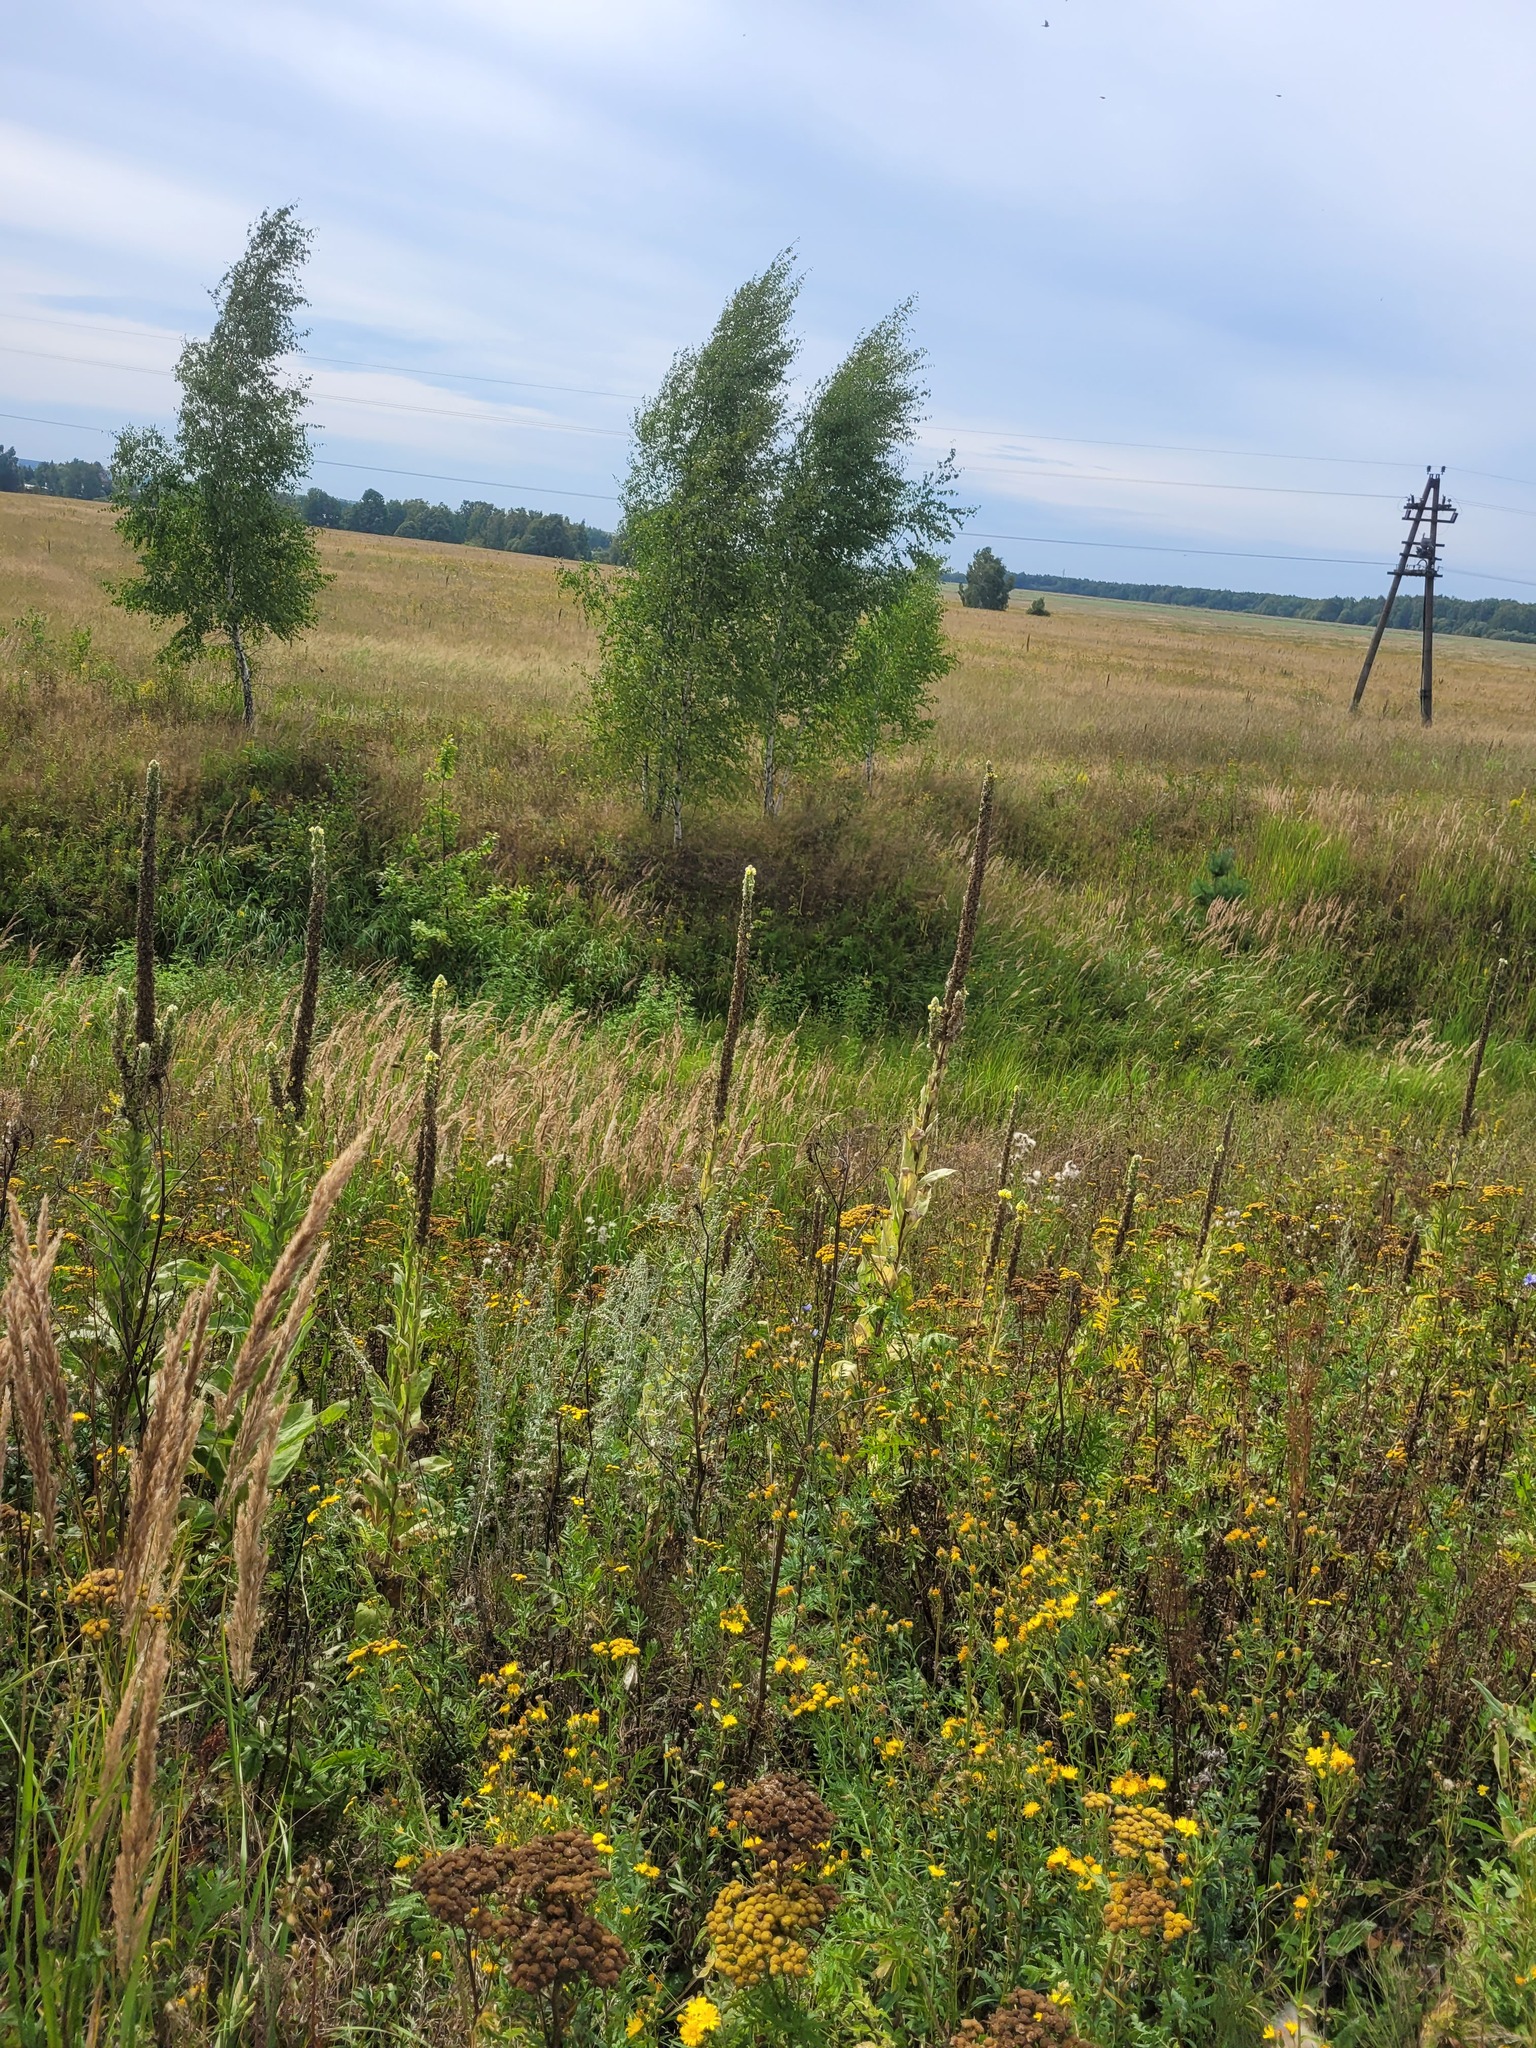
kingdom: Plantae
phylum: Tracheophyta
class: Magnoliopsida
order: Lamiales
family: Scrophulariaceae
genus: Verbascum
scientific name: Verbascum thapsus
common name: Common mullein
